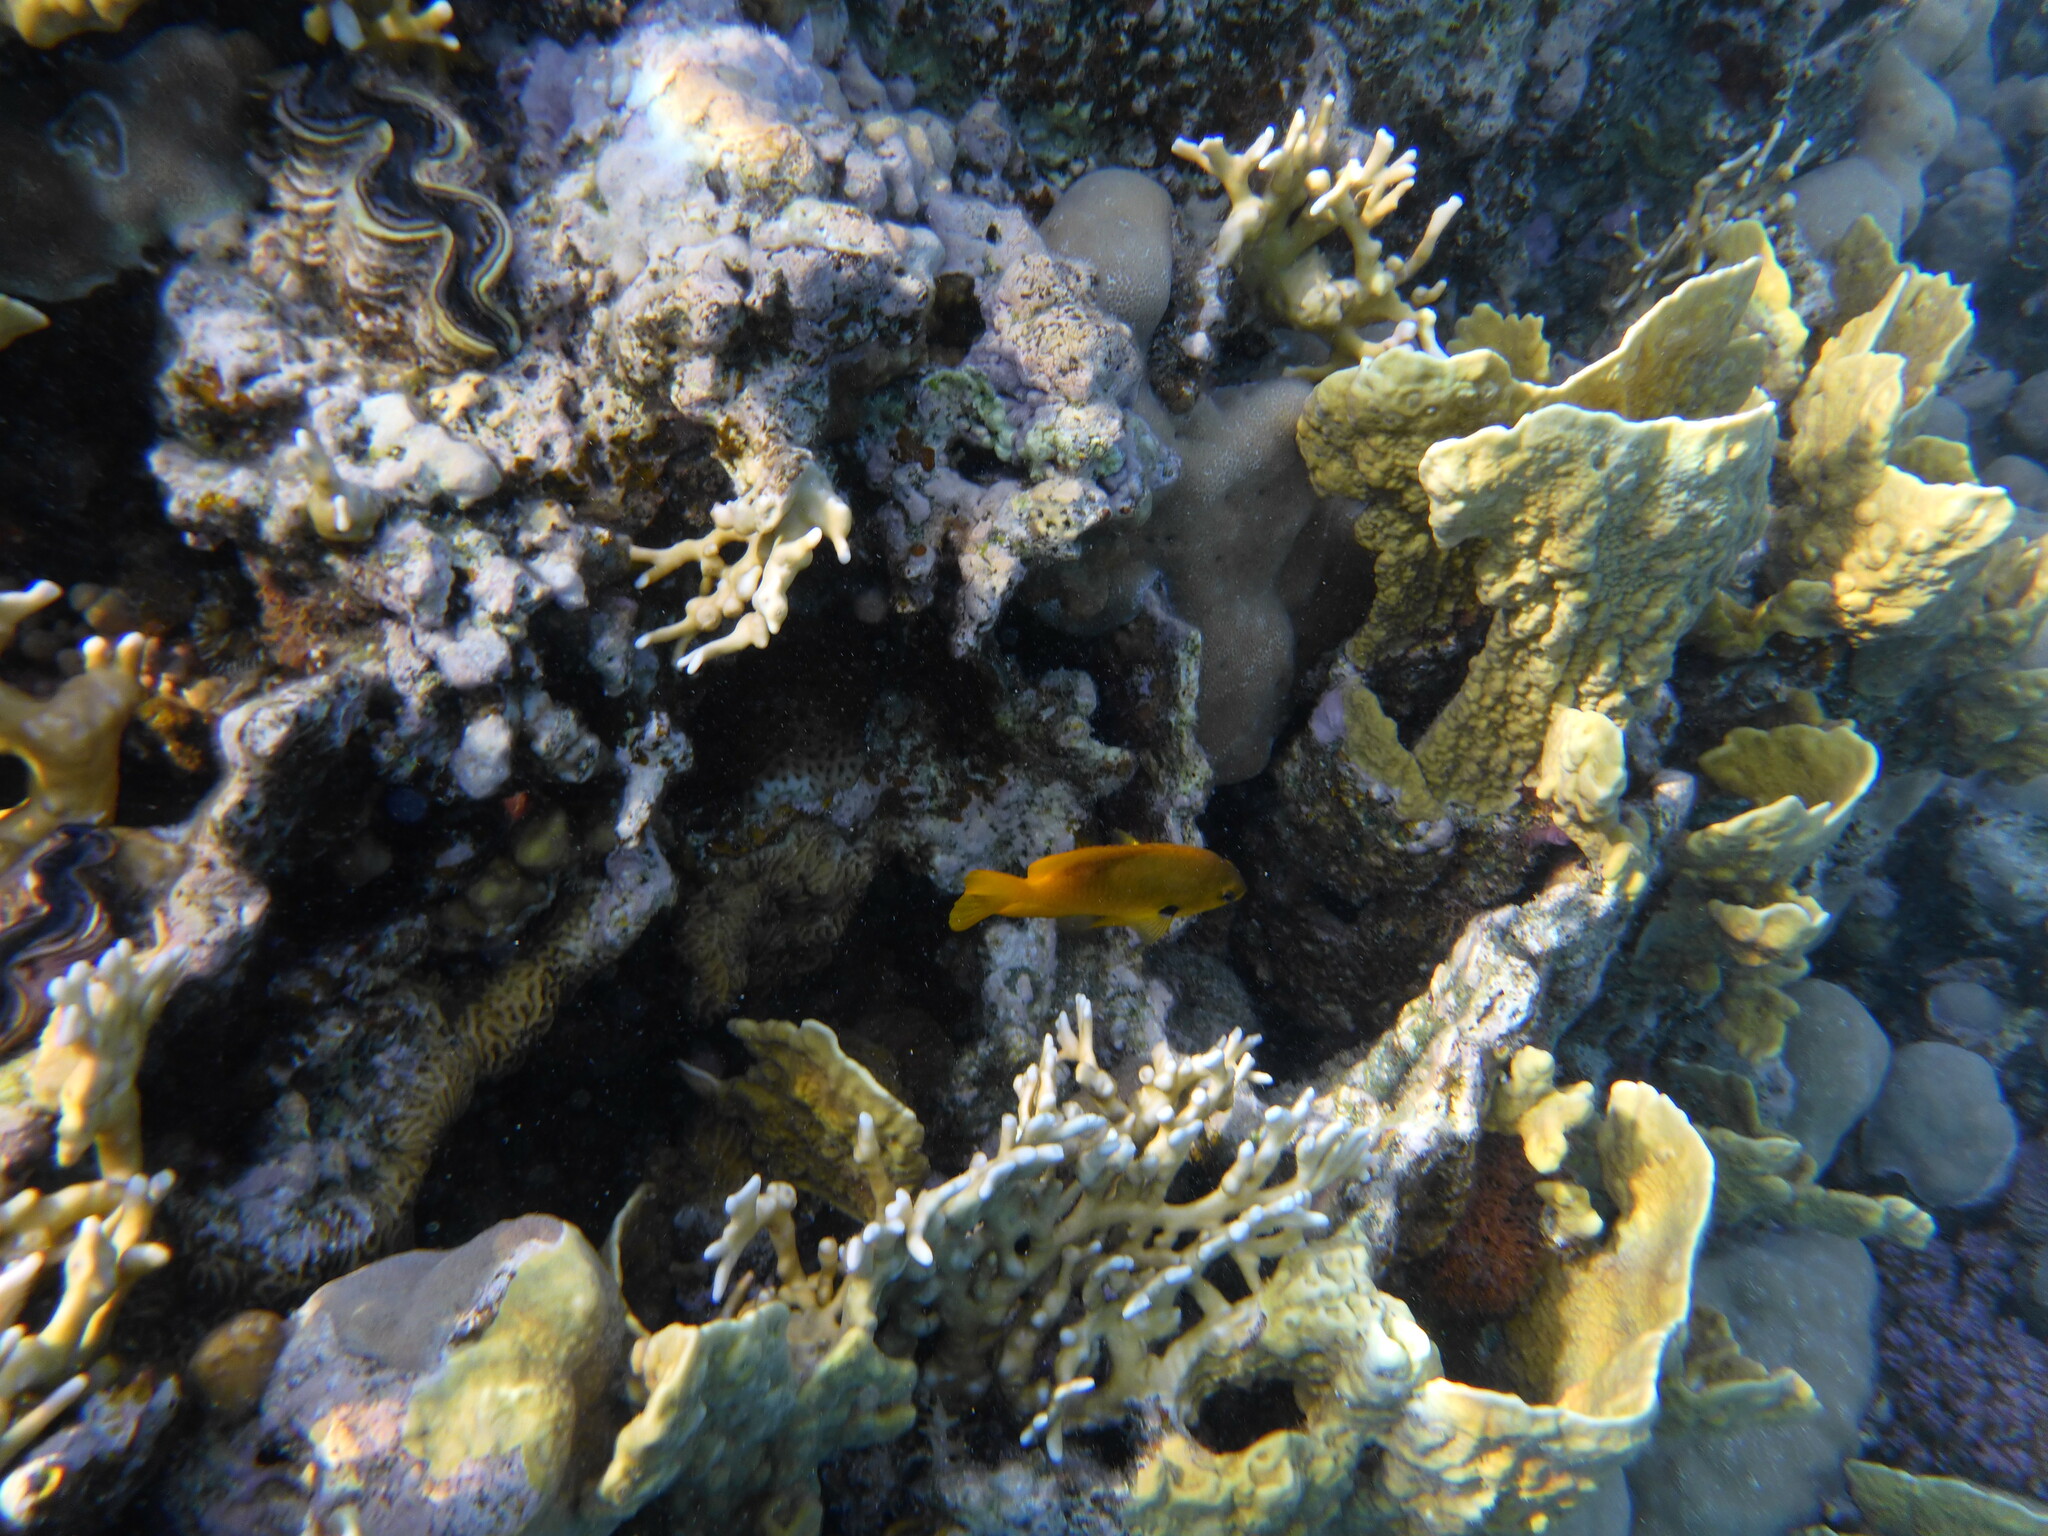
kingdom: Animalia
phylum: Chordata
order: Perciformes
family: Pomacentridae
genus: Pomacentrus
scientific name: Pomacentrus sulfureus
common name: Sulfur damsel
